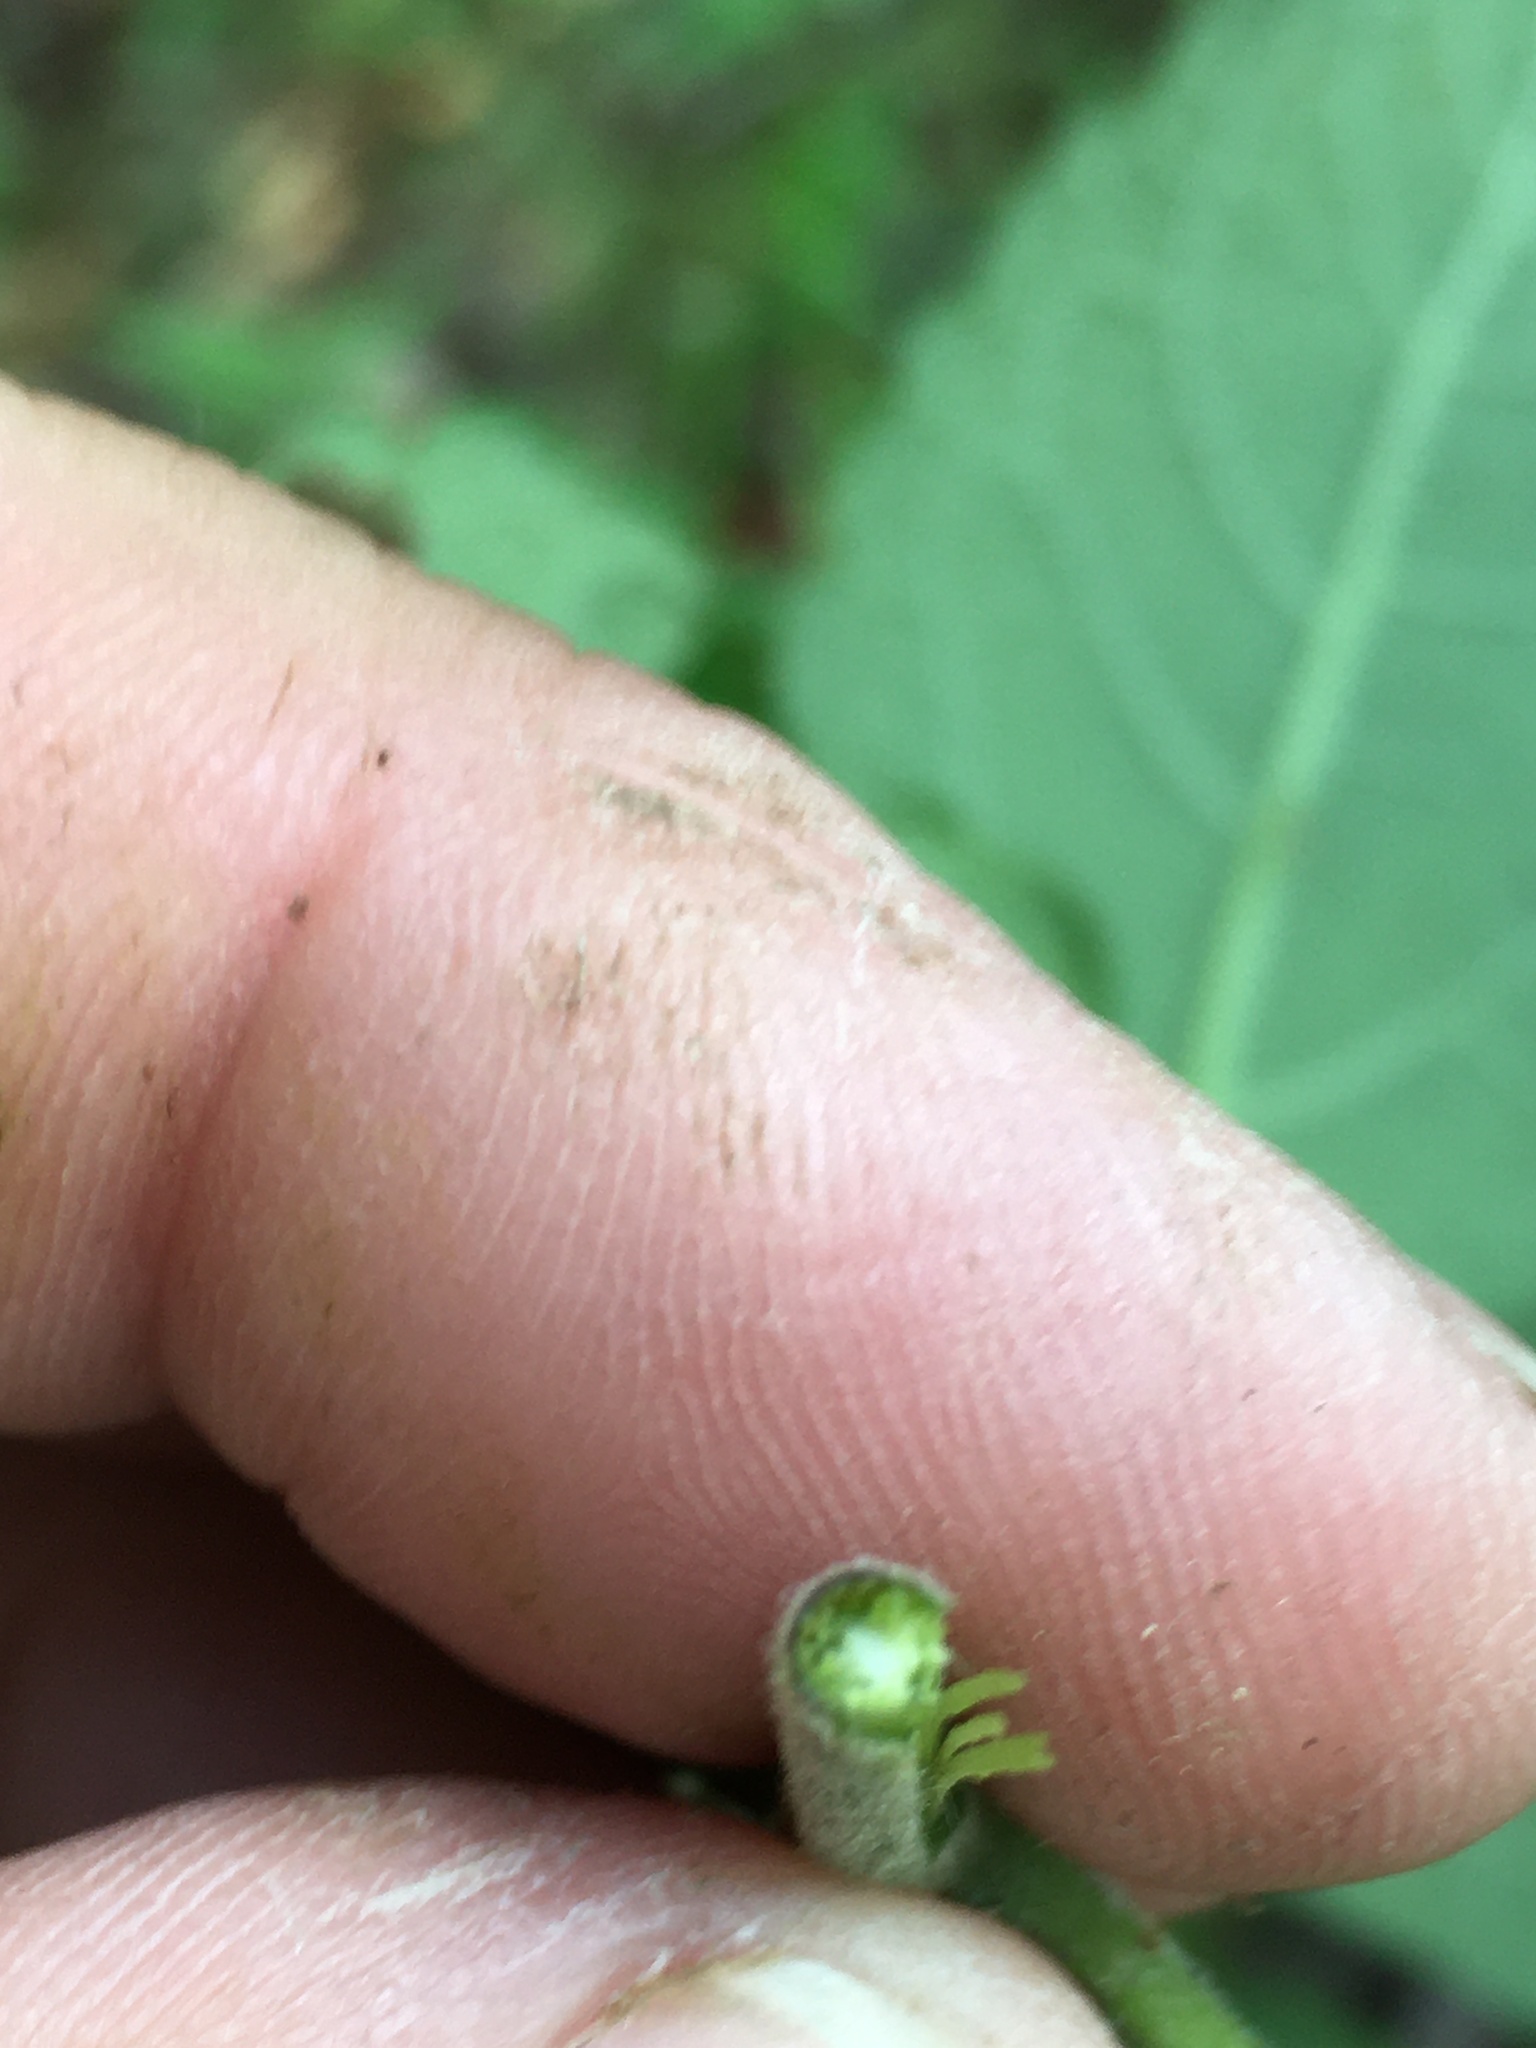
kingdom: Plantae
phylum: Tracheophyta
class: Magnoliopsida
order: Asterales
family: Asteraceae
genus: Eutrochium
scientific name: Eutrochium purpureum
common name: Gravelroot
